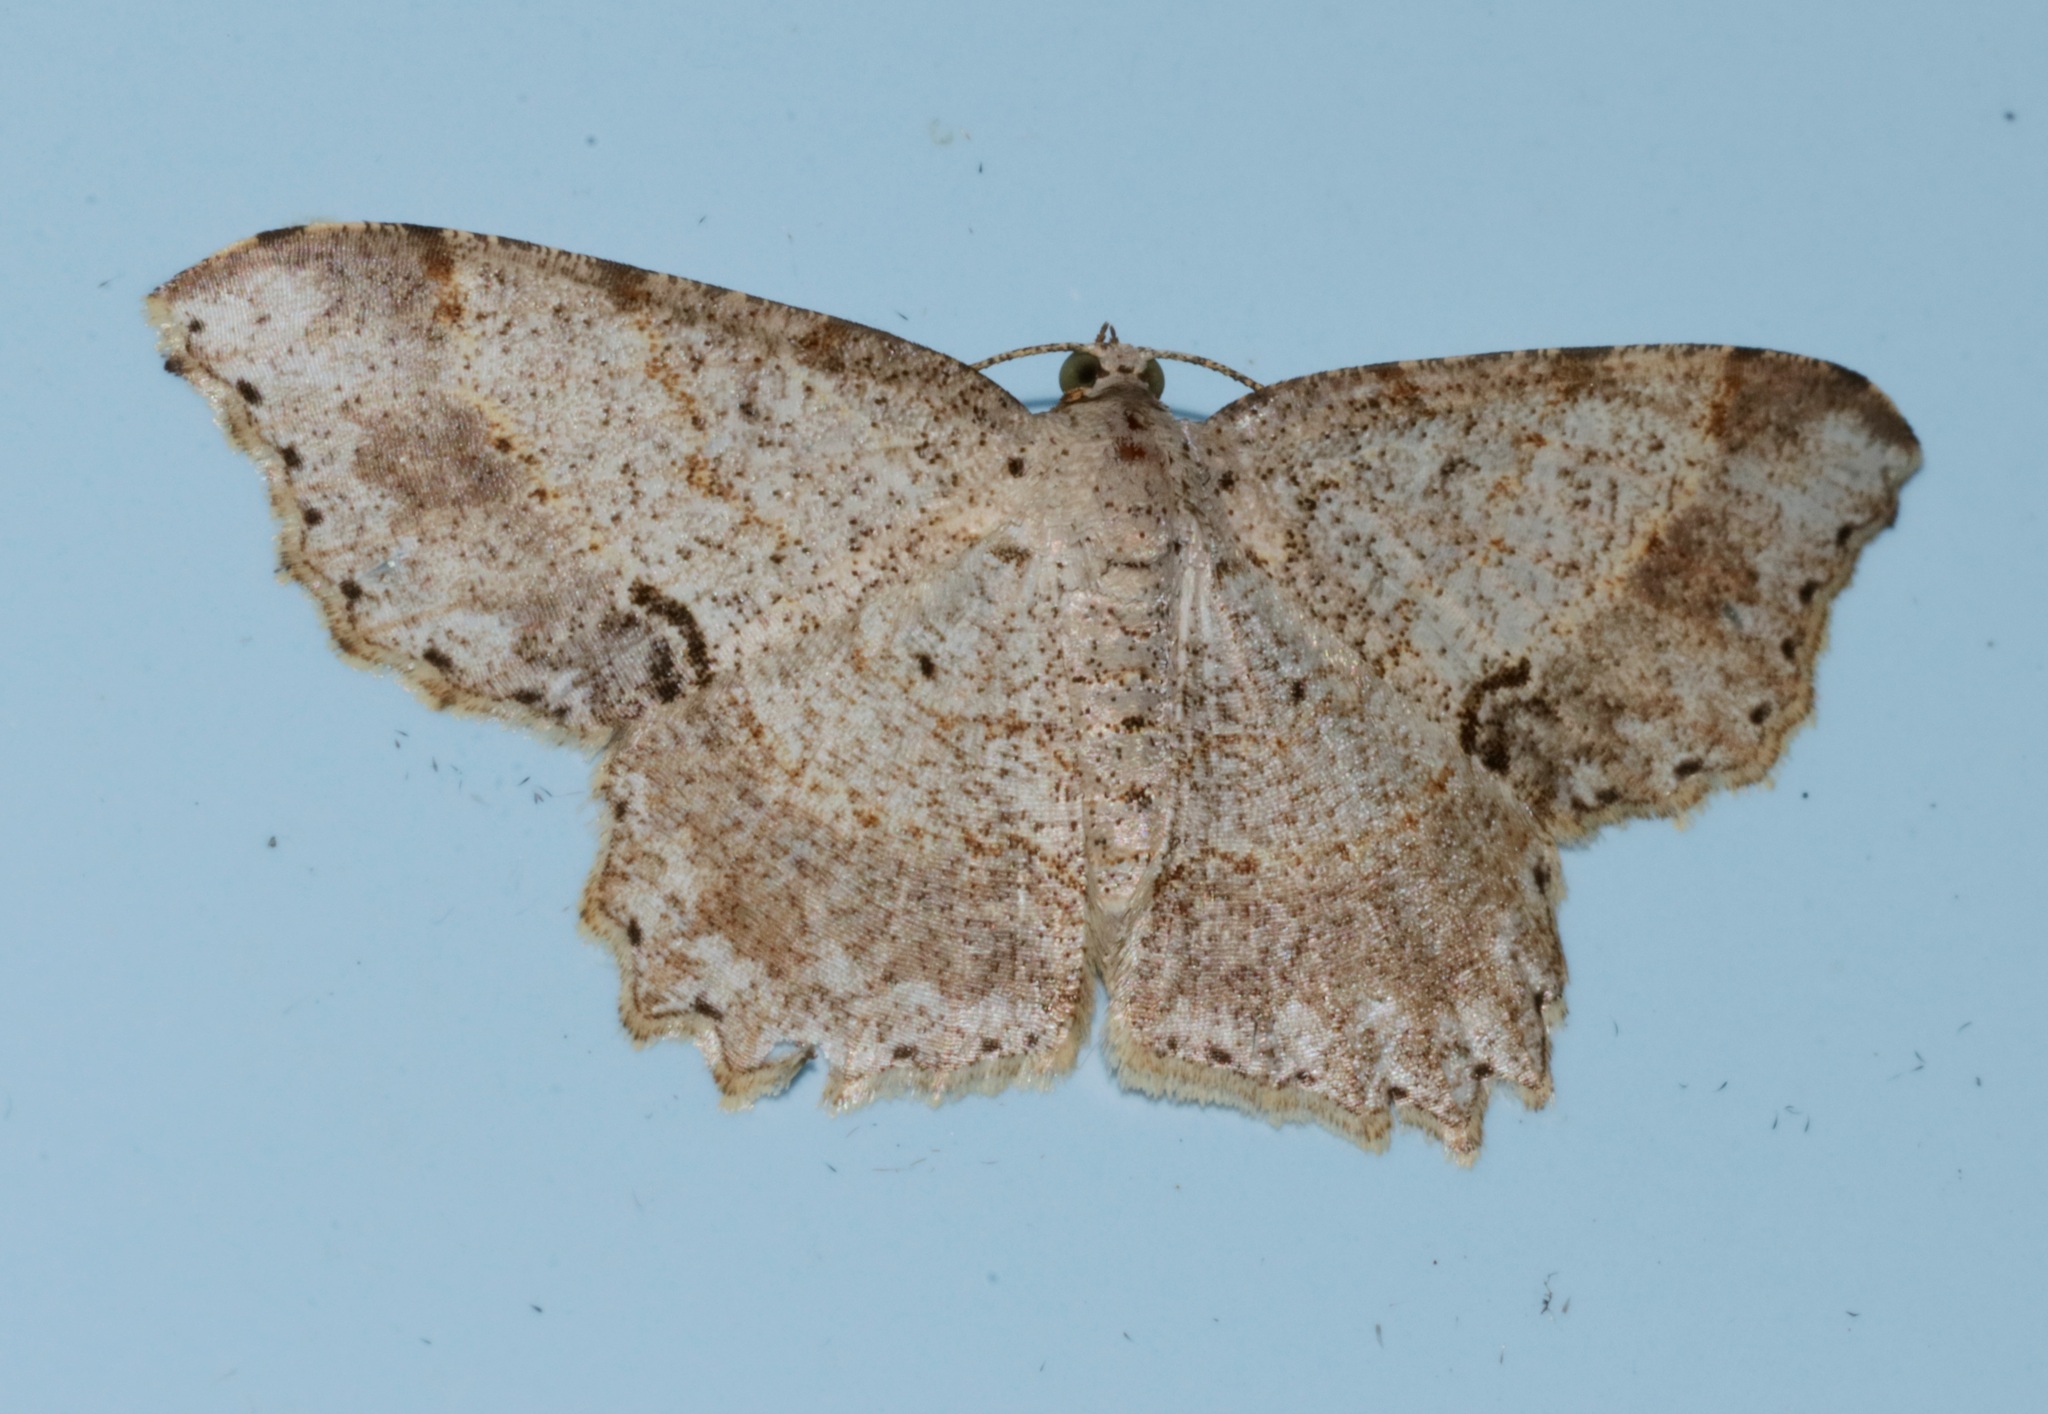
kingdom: Animalia
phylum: Arthropoda
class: Insecta
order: Lepidoptera
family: Geometridae
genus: Calletaera
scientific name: Calletaera subexpressa
